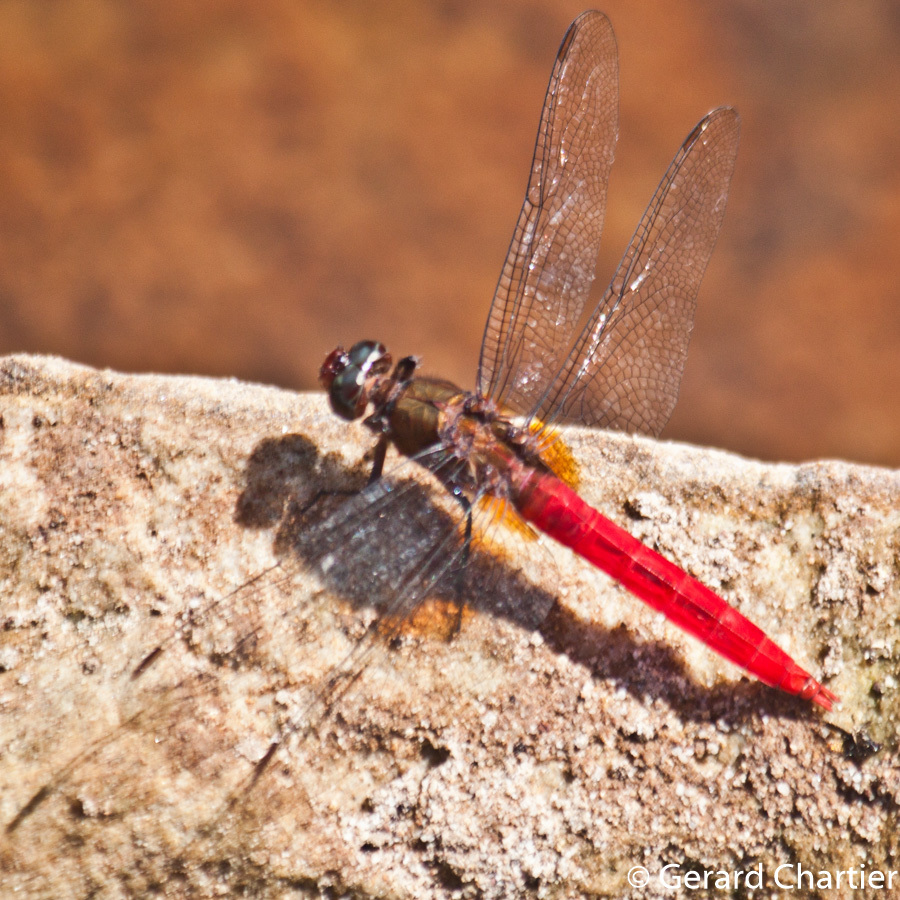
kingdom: Animalia
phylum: Arthropoda
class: Insecta
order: Odonata
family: Libellulidae
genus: Orthetrum
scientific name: Orthetrum chrysis
